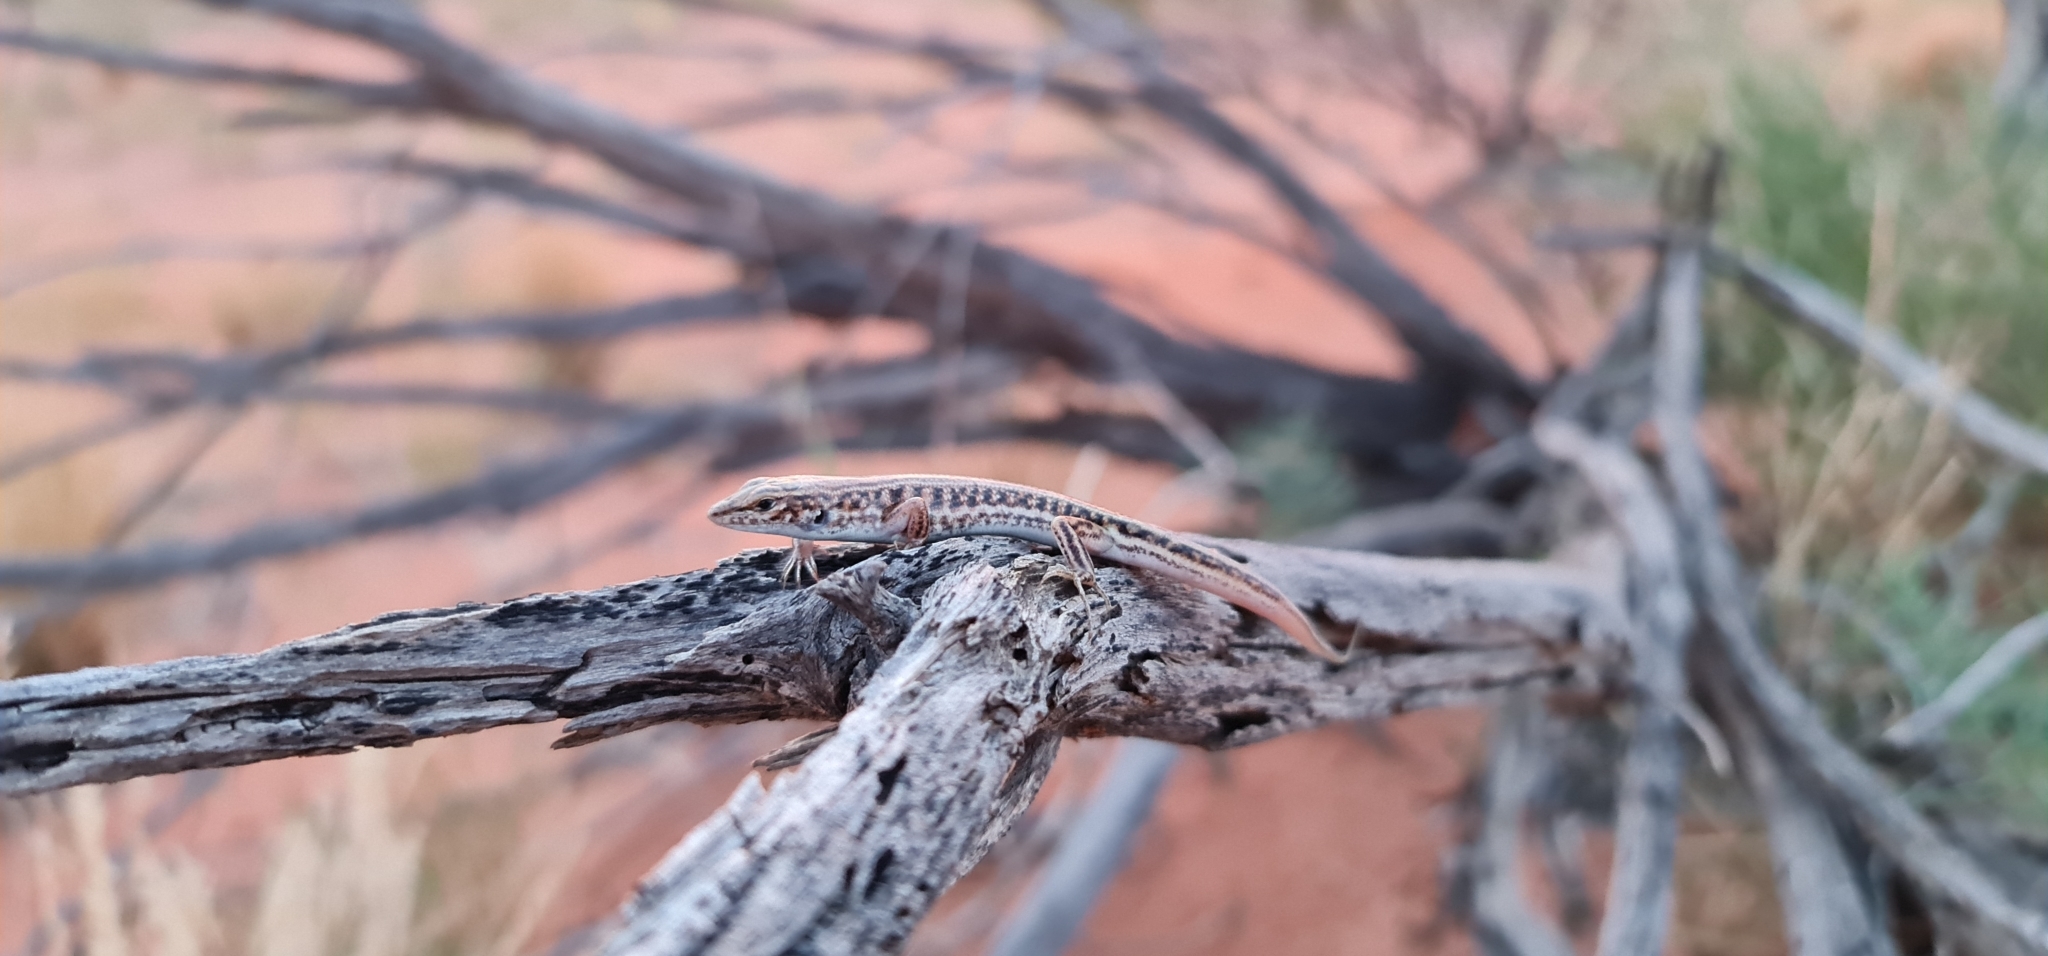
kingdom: Animalia
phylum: Chordata
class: Squamata
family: Scincidae
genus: Ctenotus
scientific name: Ctenotus taeniatus
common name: Eyrean ctenotus
